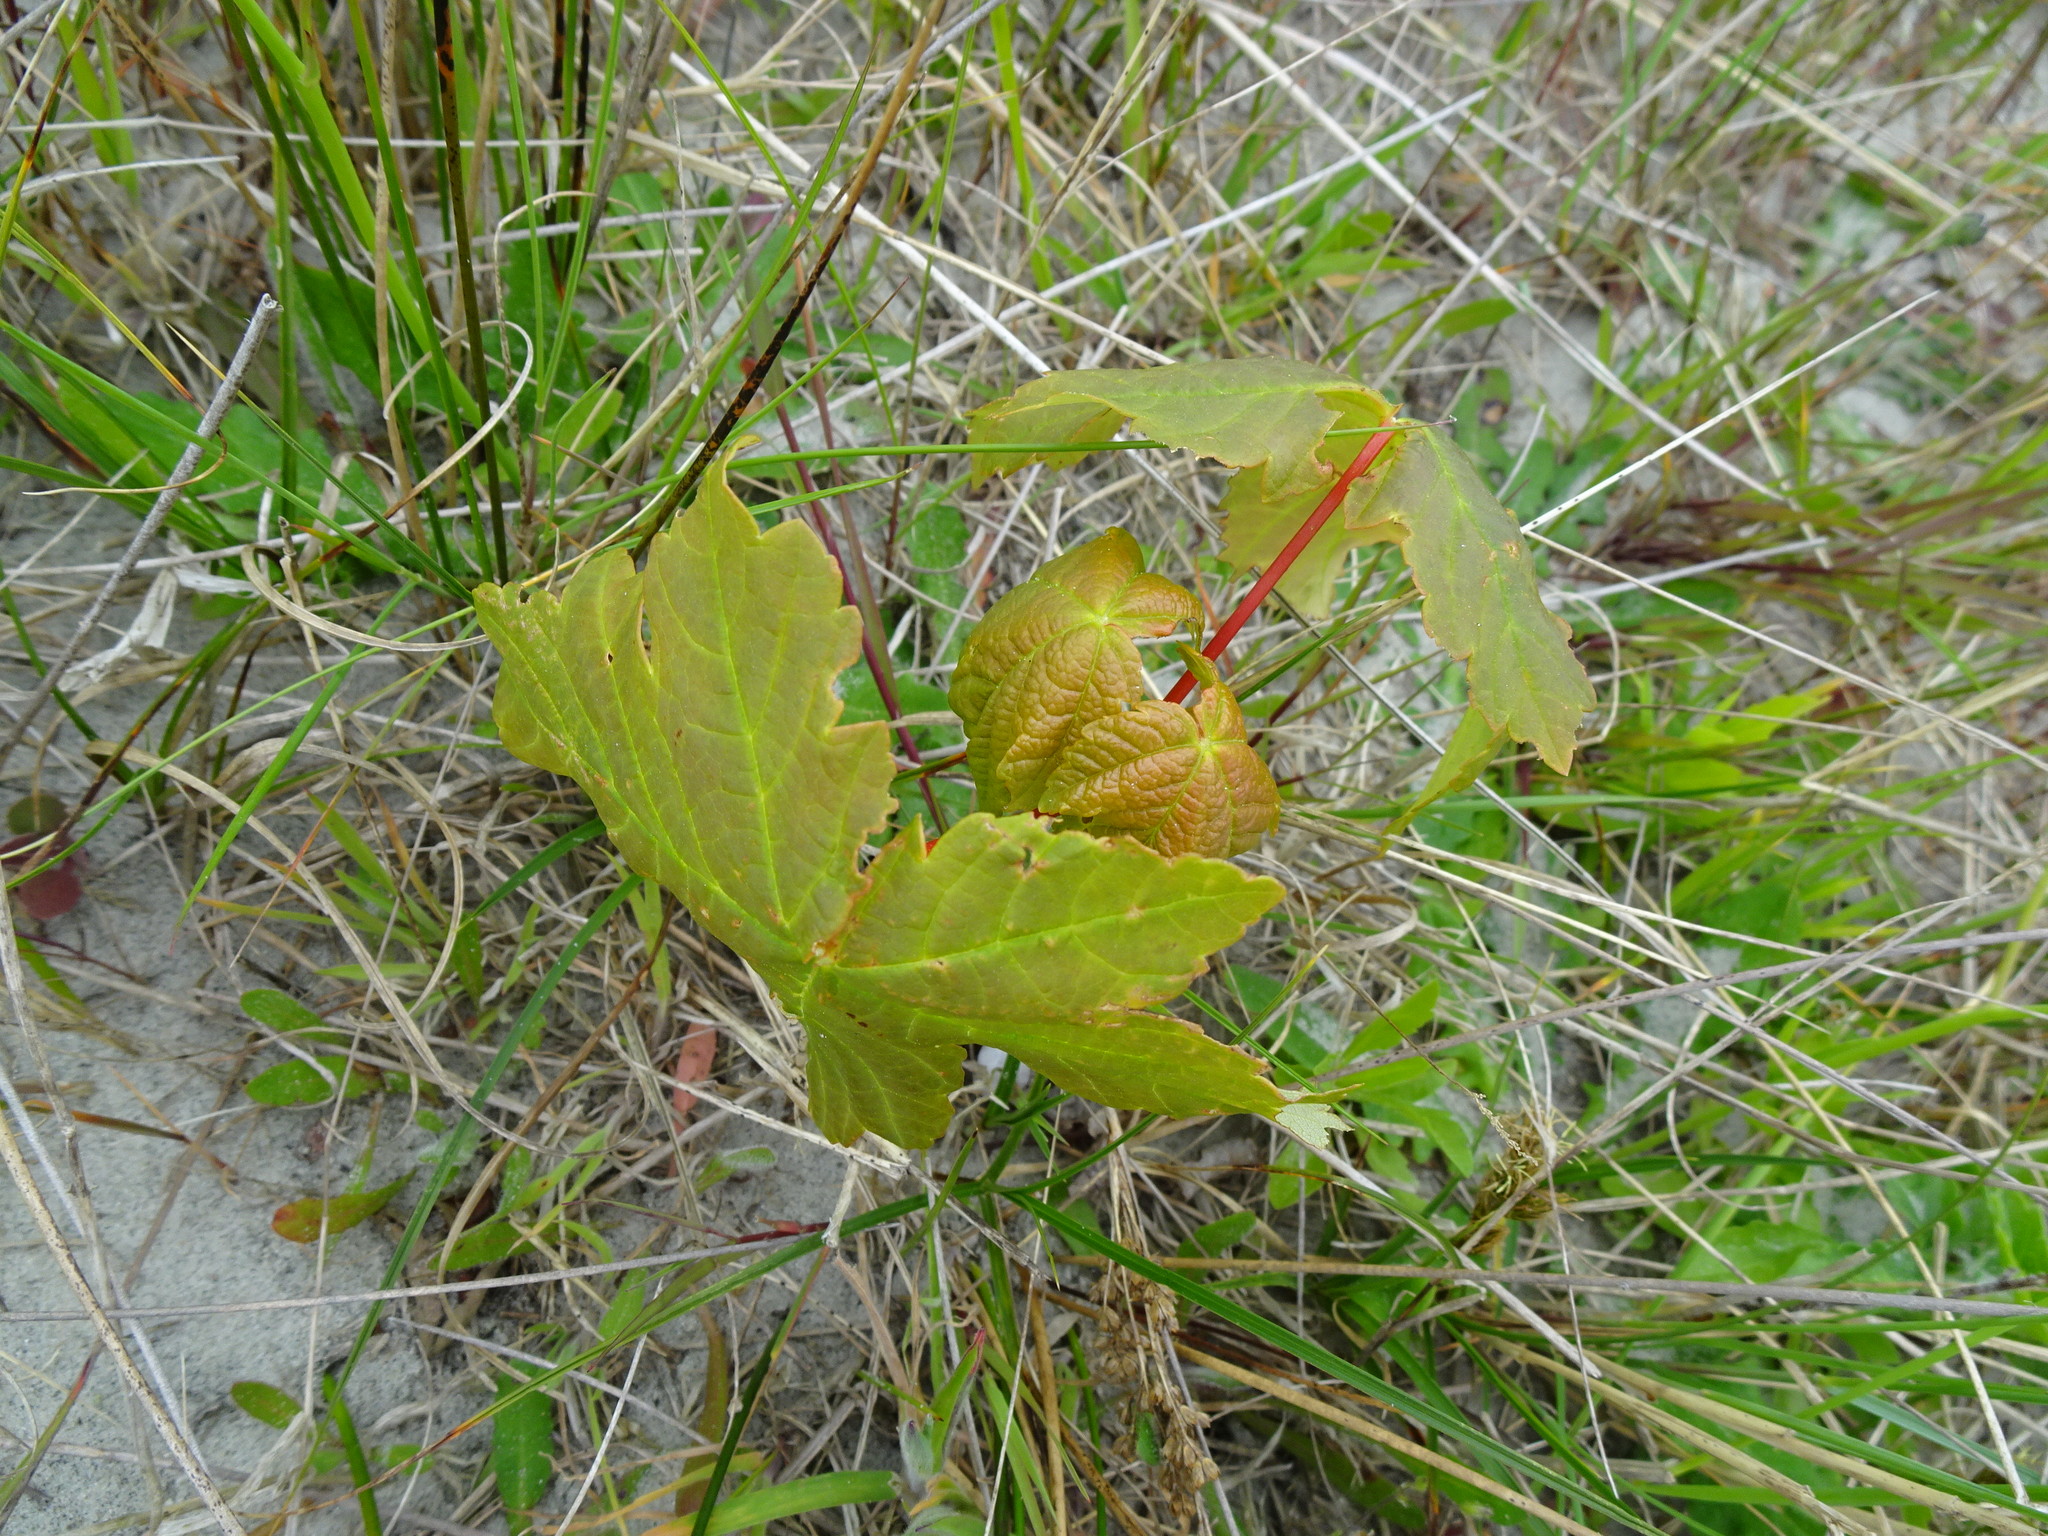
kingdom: Plantae
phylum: Tracheophyta
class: Magnoliopsida
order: Sapindales
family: Sapindaceae
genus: Acer
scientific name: Acer pseudoplatanus
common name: Sycamore
